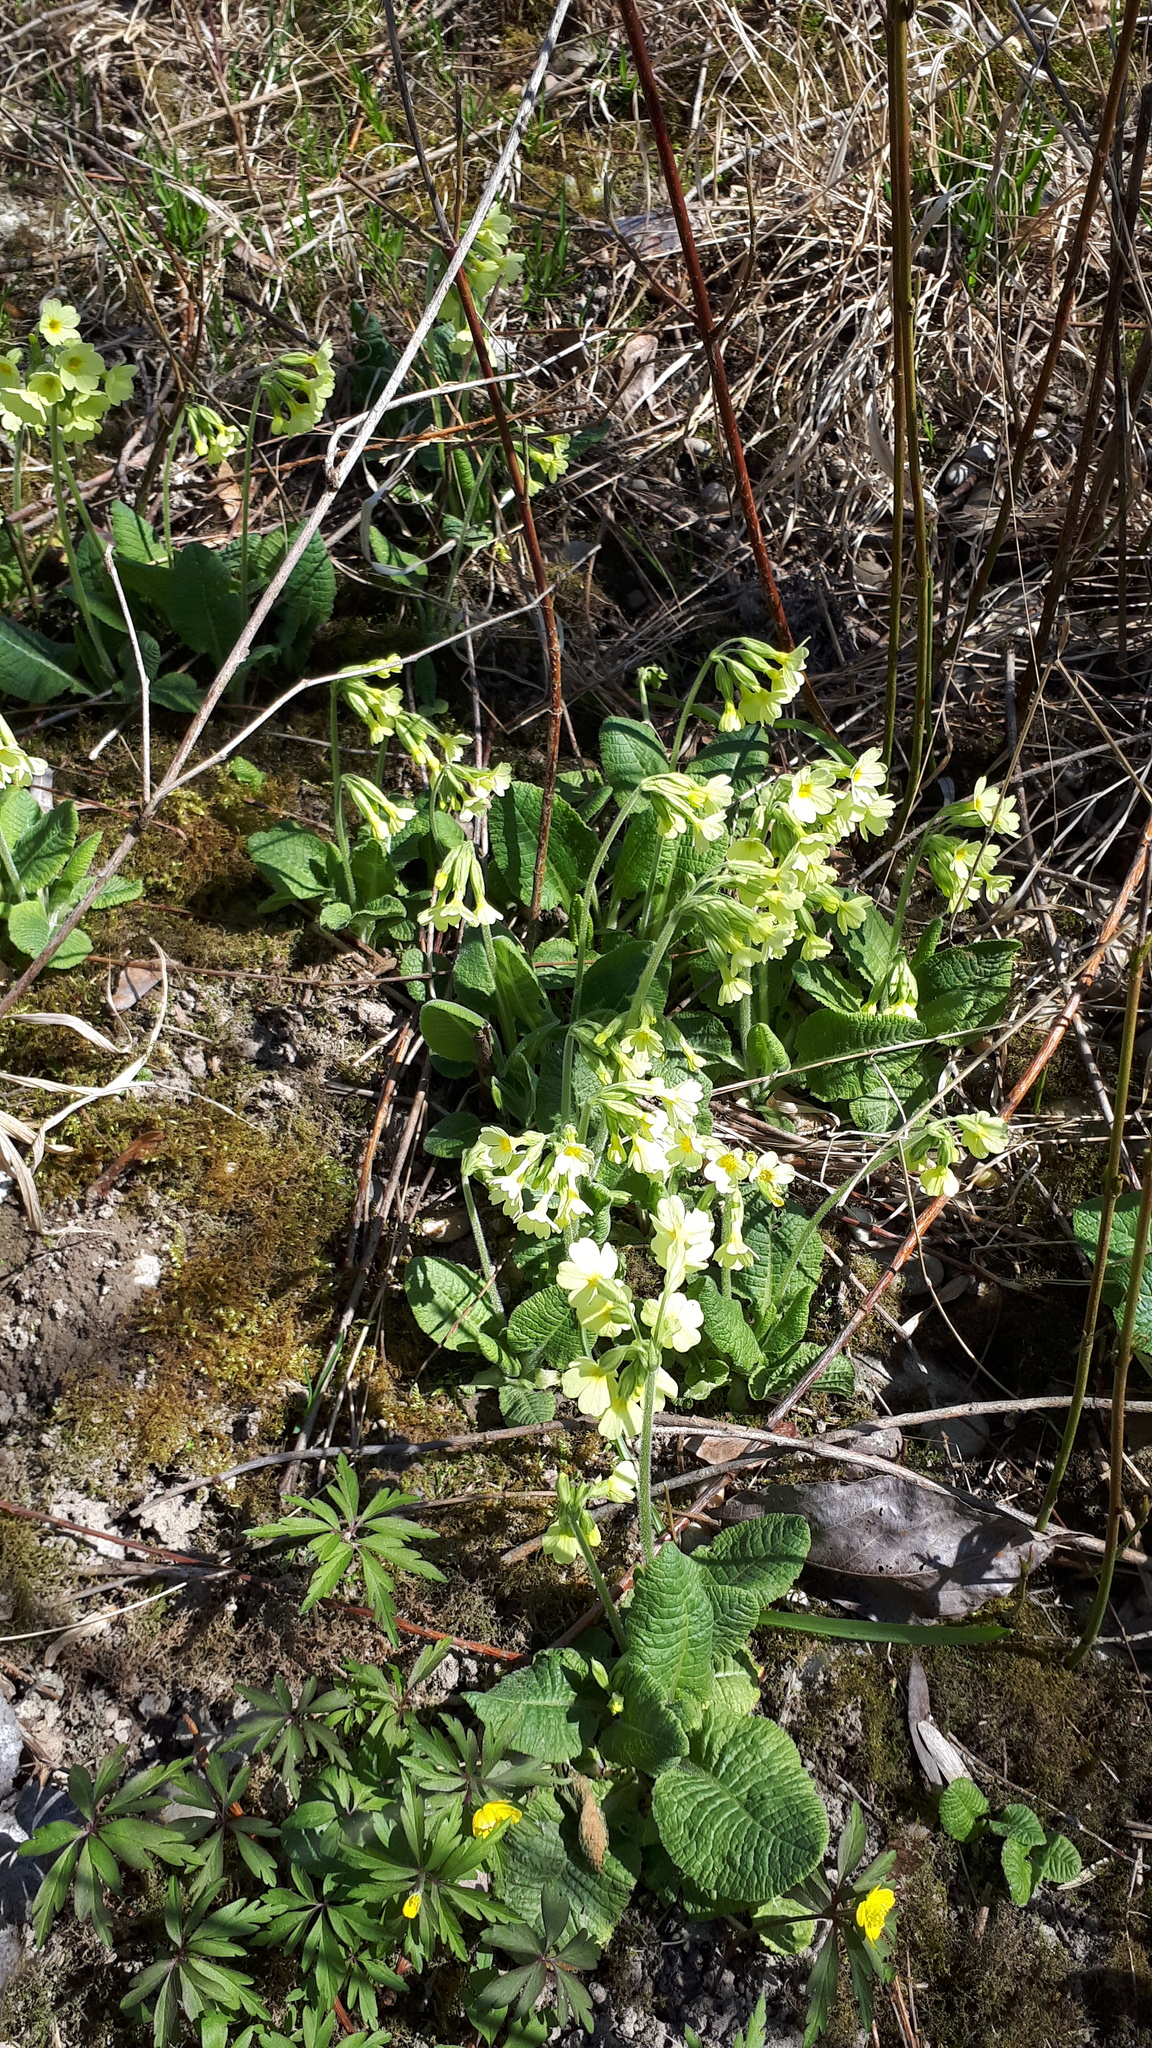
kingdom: Plantae
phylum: Tracheophyta
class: Magnoliopsida
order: Ericales
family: Primulaceae
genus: Primula
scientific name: Primula elatior
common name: Oxlip
